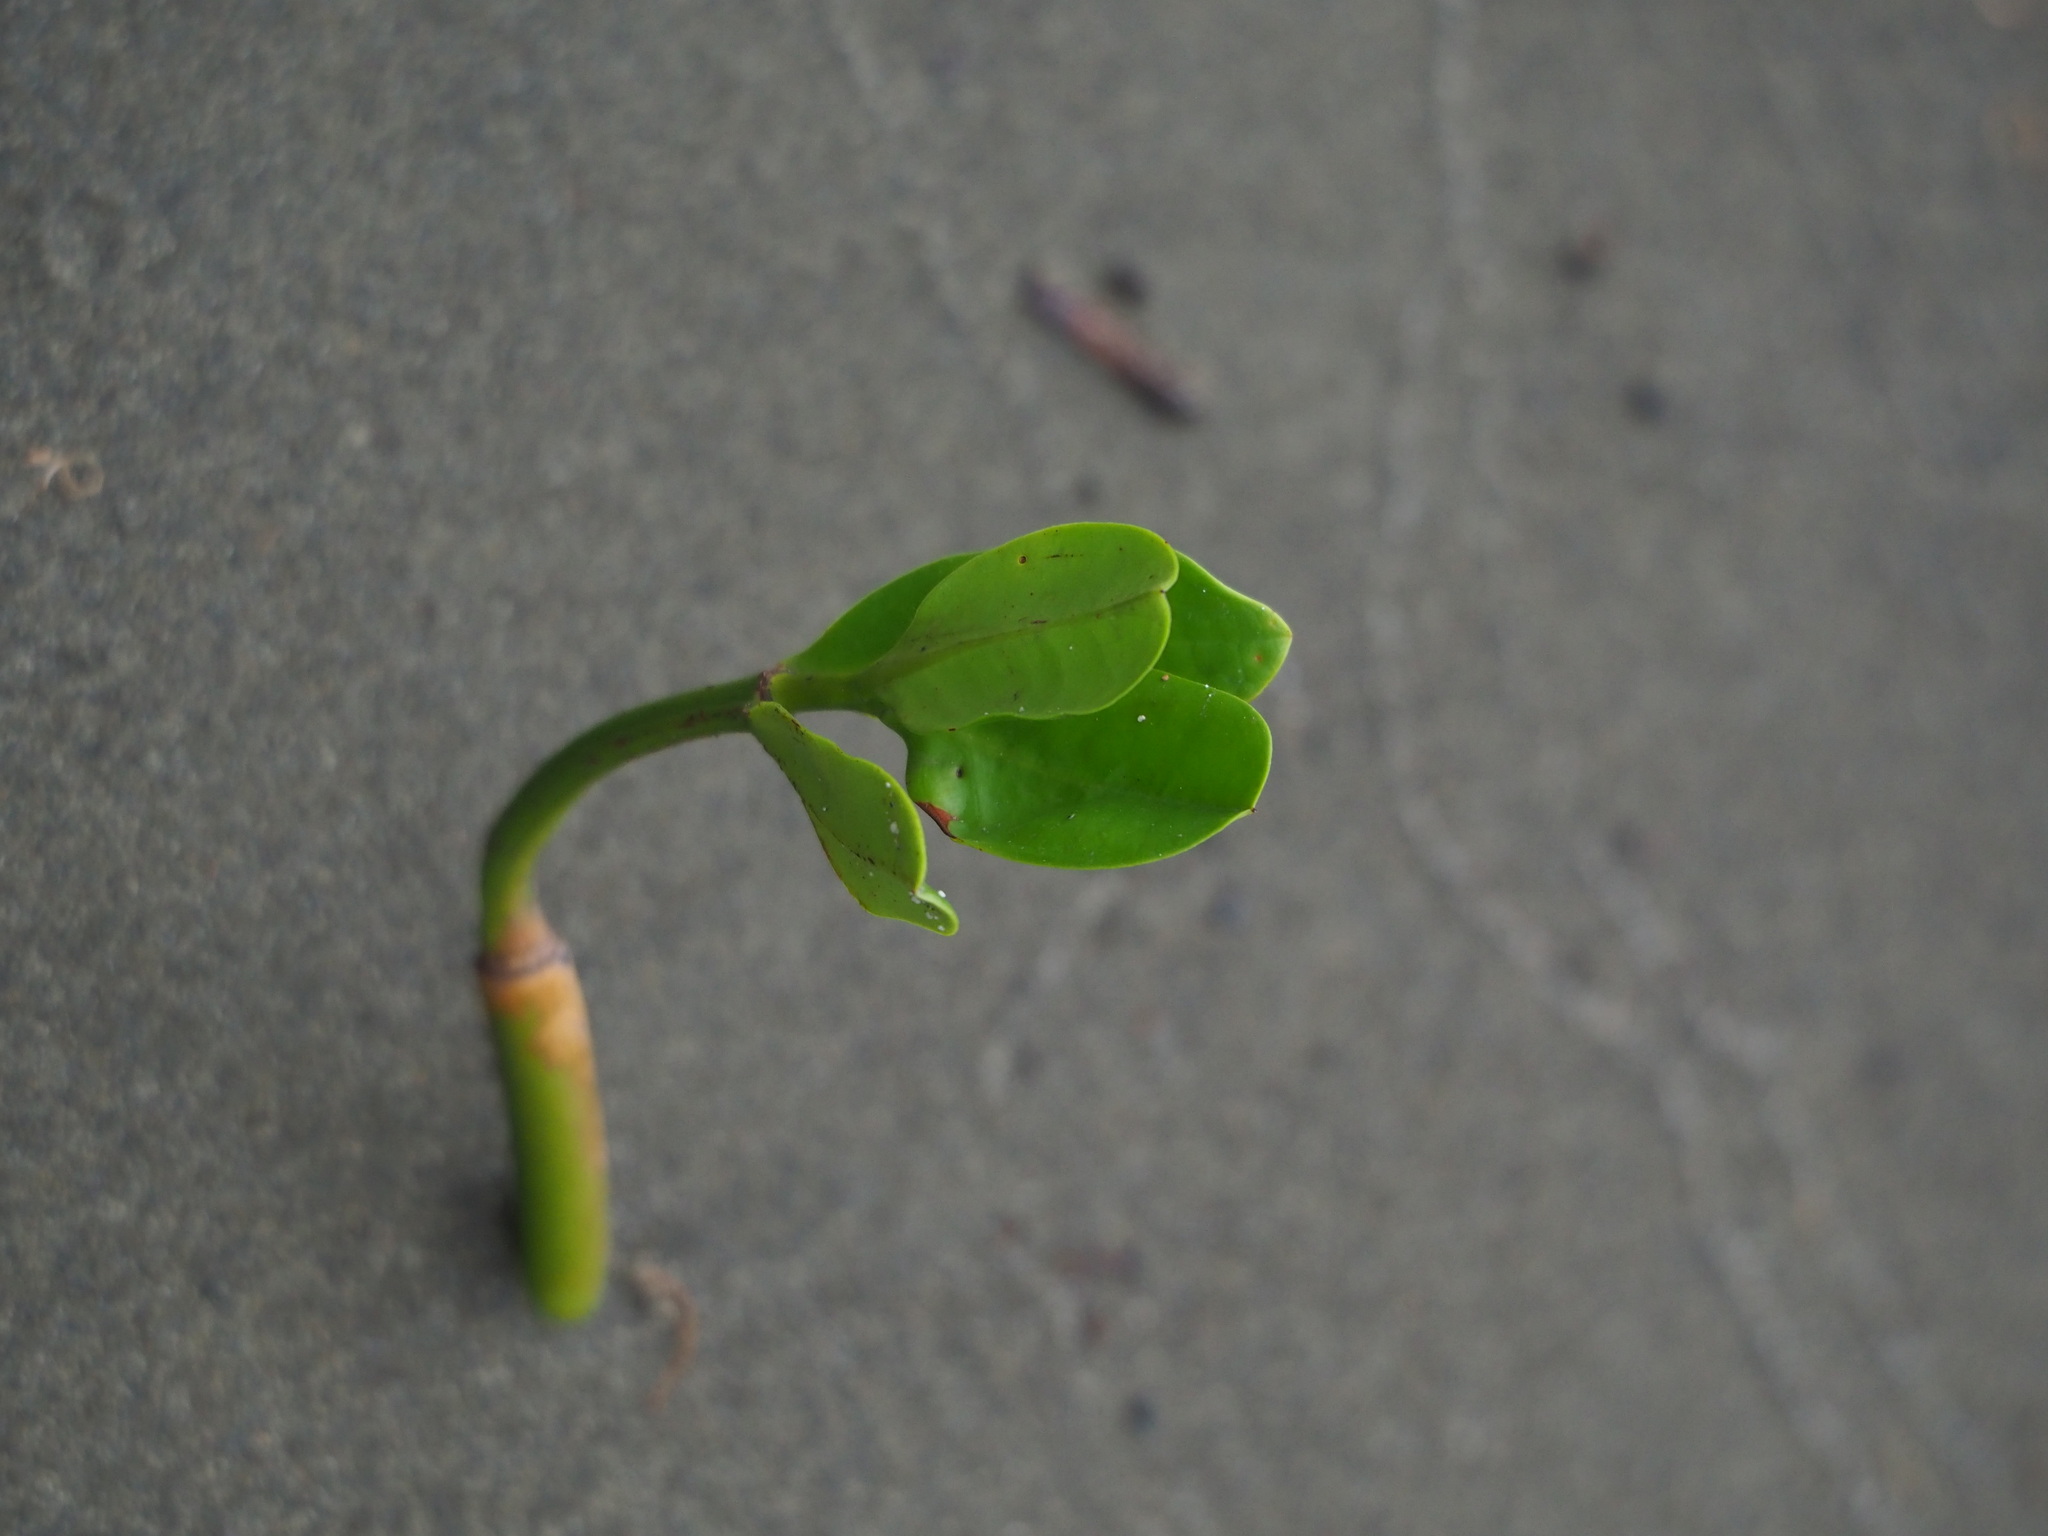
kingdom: Plantae
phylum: Tracheophyta
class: Magnoliopsida
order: Malpighiales
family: Rhizophoraceae
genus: Kandelia
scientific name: Kandelia obovata
